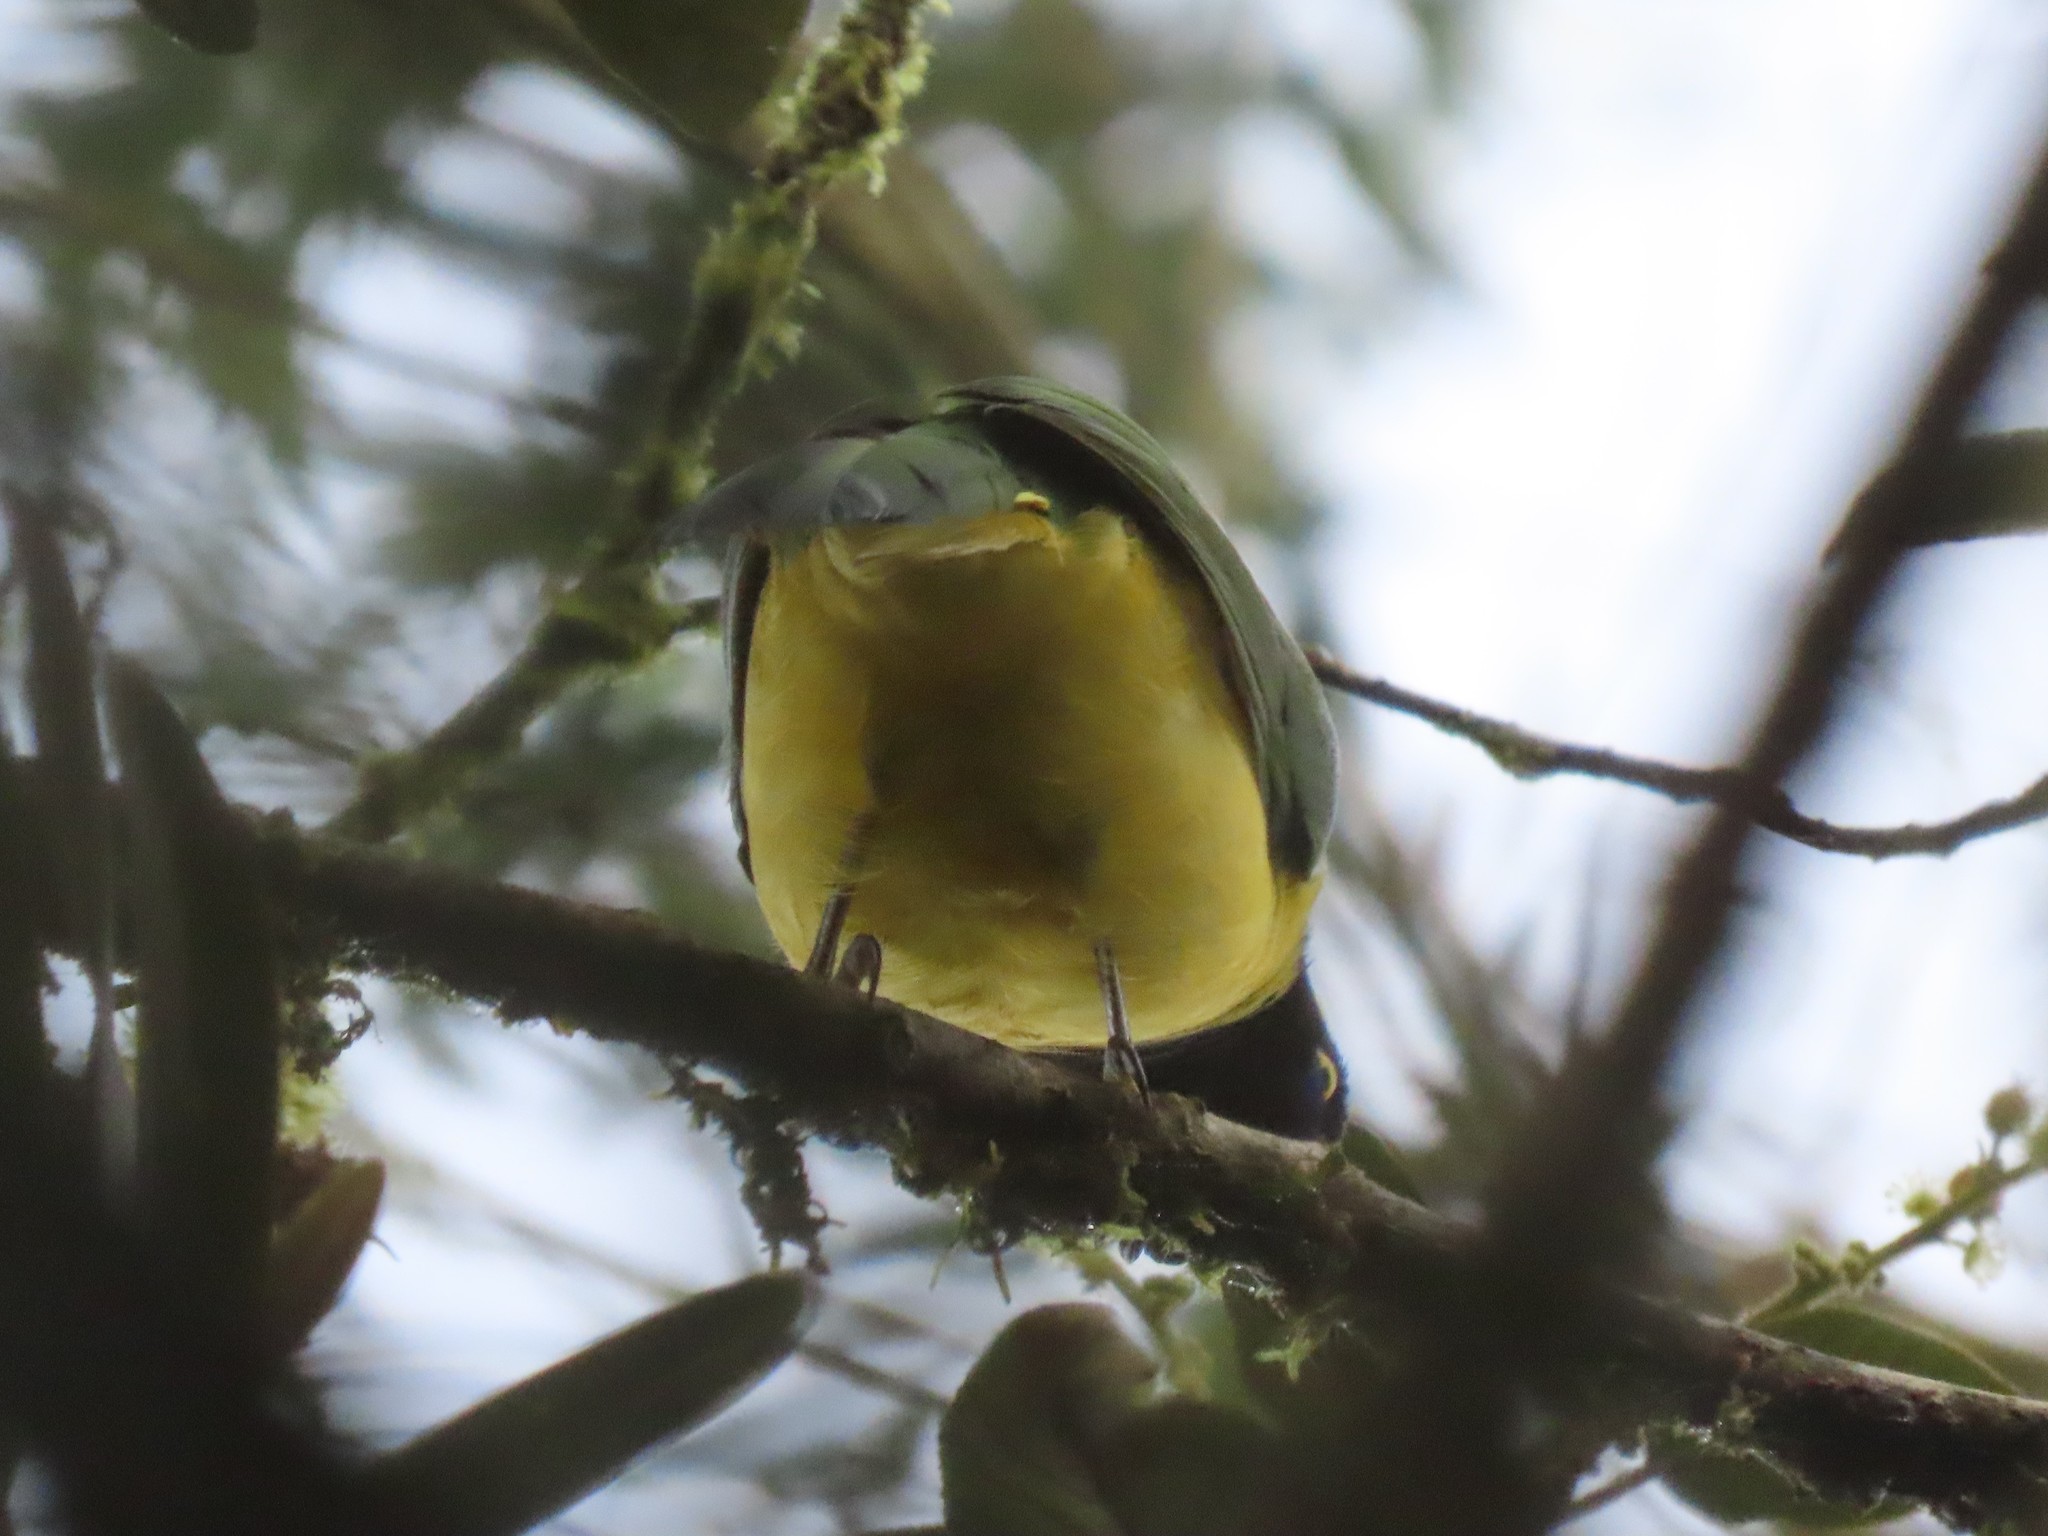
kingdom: Animalia
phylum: Chordata
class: Aves
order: Passeriformes
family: Corvidae
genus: Cyanocorax
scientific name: Cyanocorax yncas
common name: Green jay
